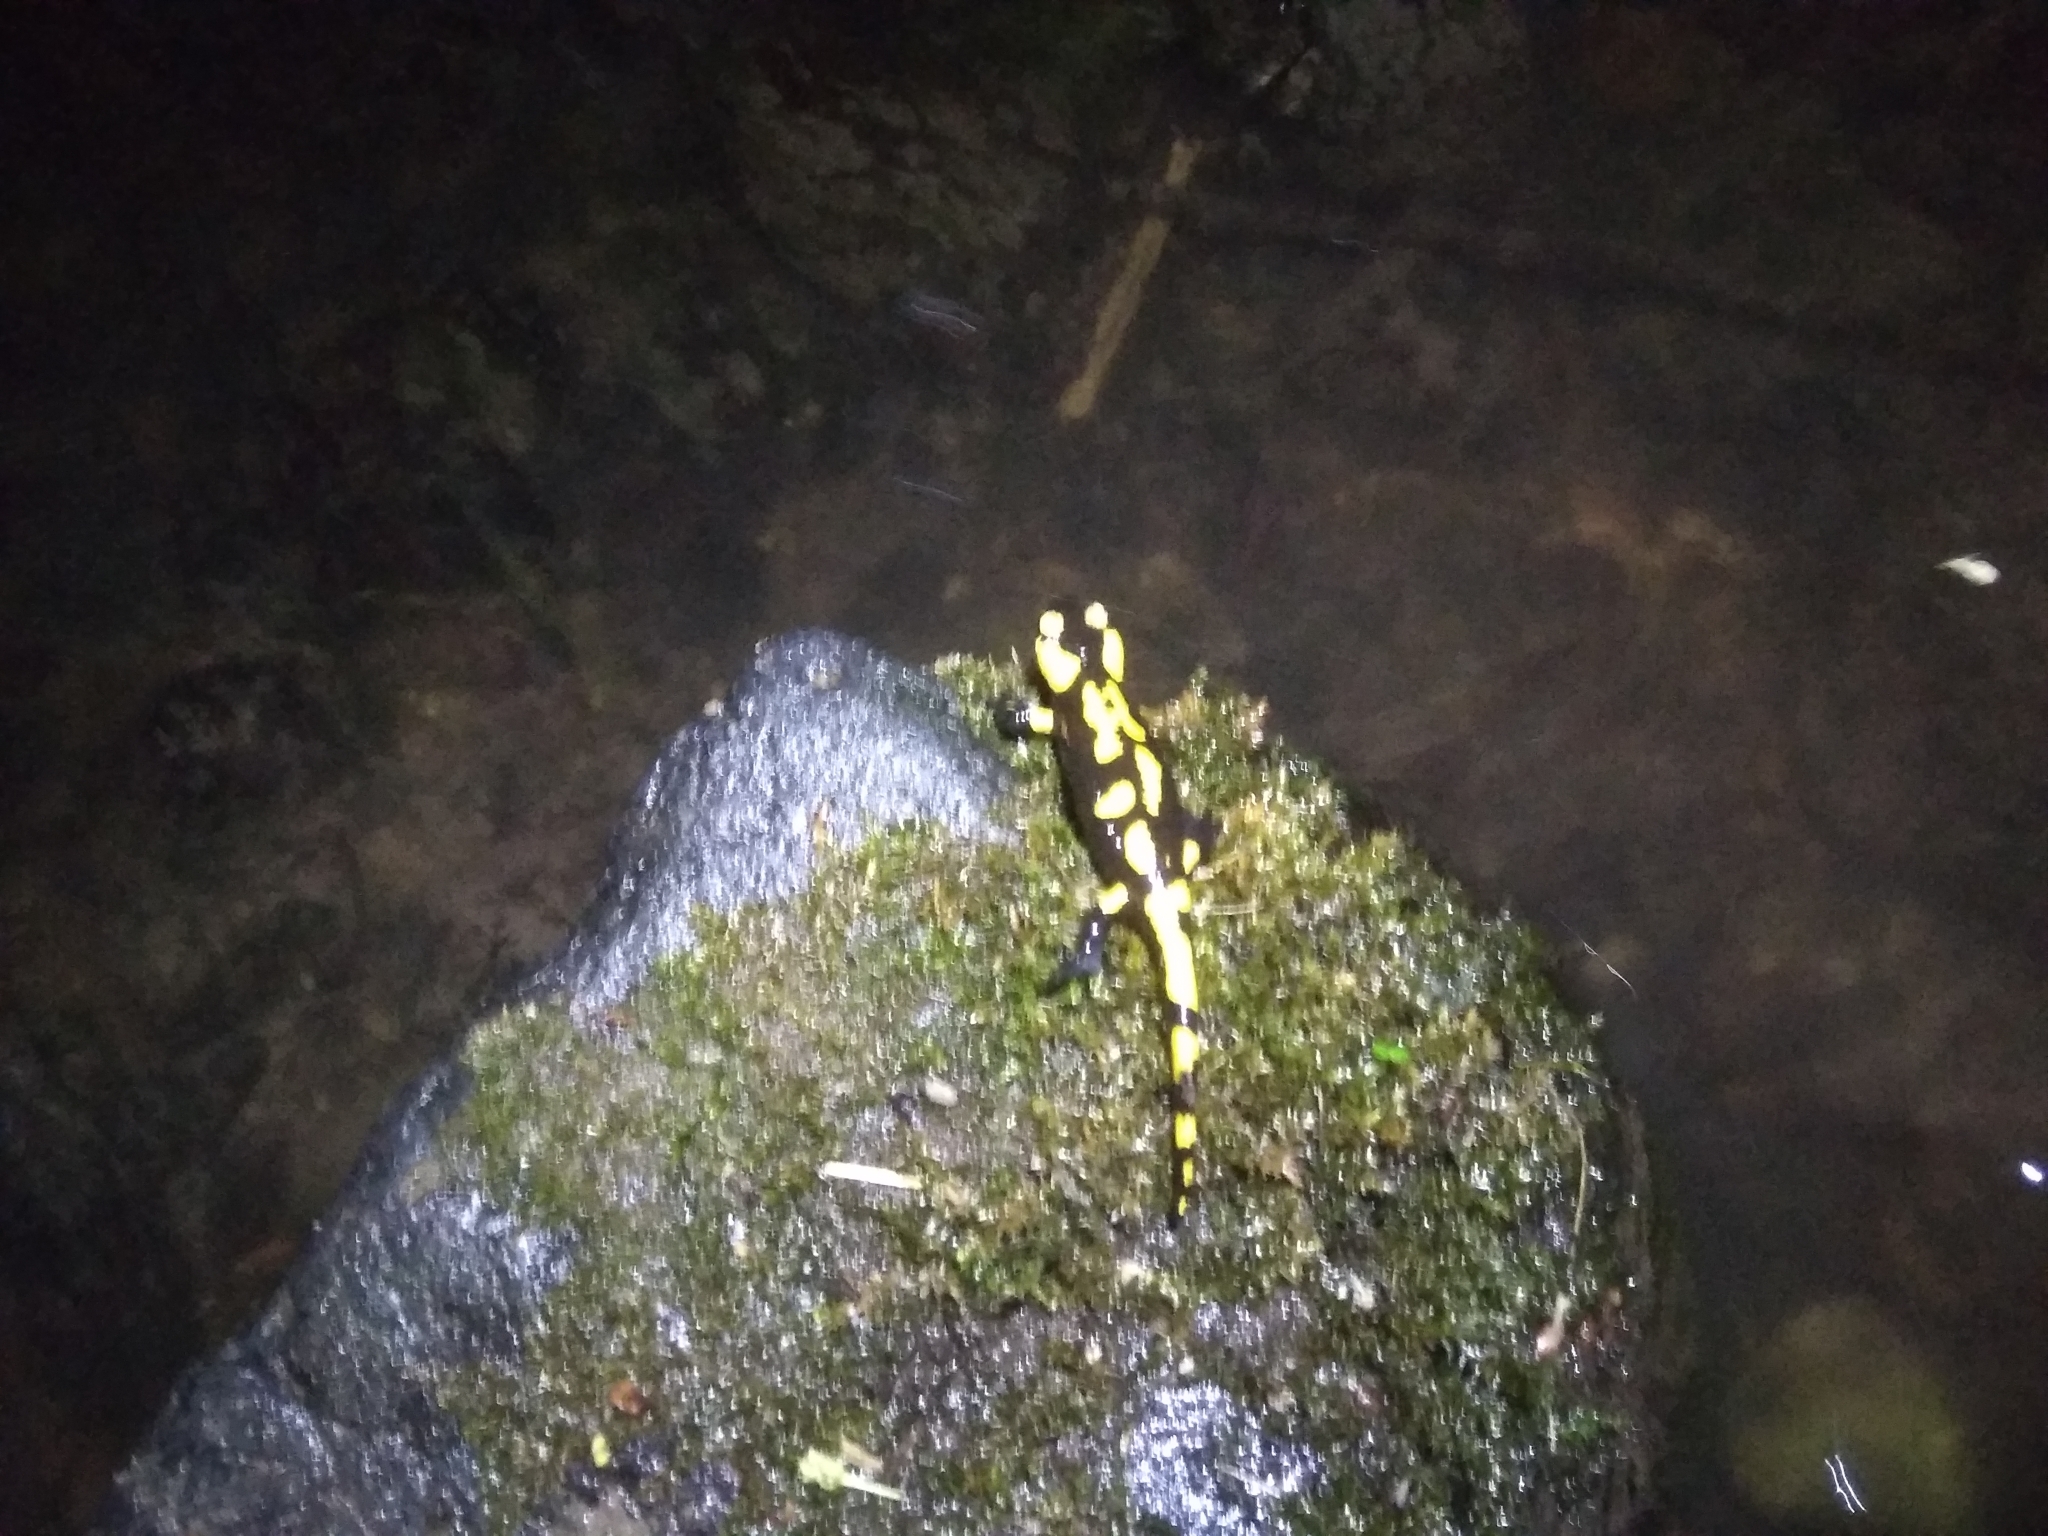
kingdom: Animalia
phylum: Chordata
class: Amphibia
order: Caudata
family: Salamandridae
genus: Salamandra
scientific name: Salamandra salamandra
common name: Fire salamander
